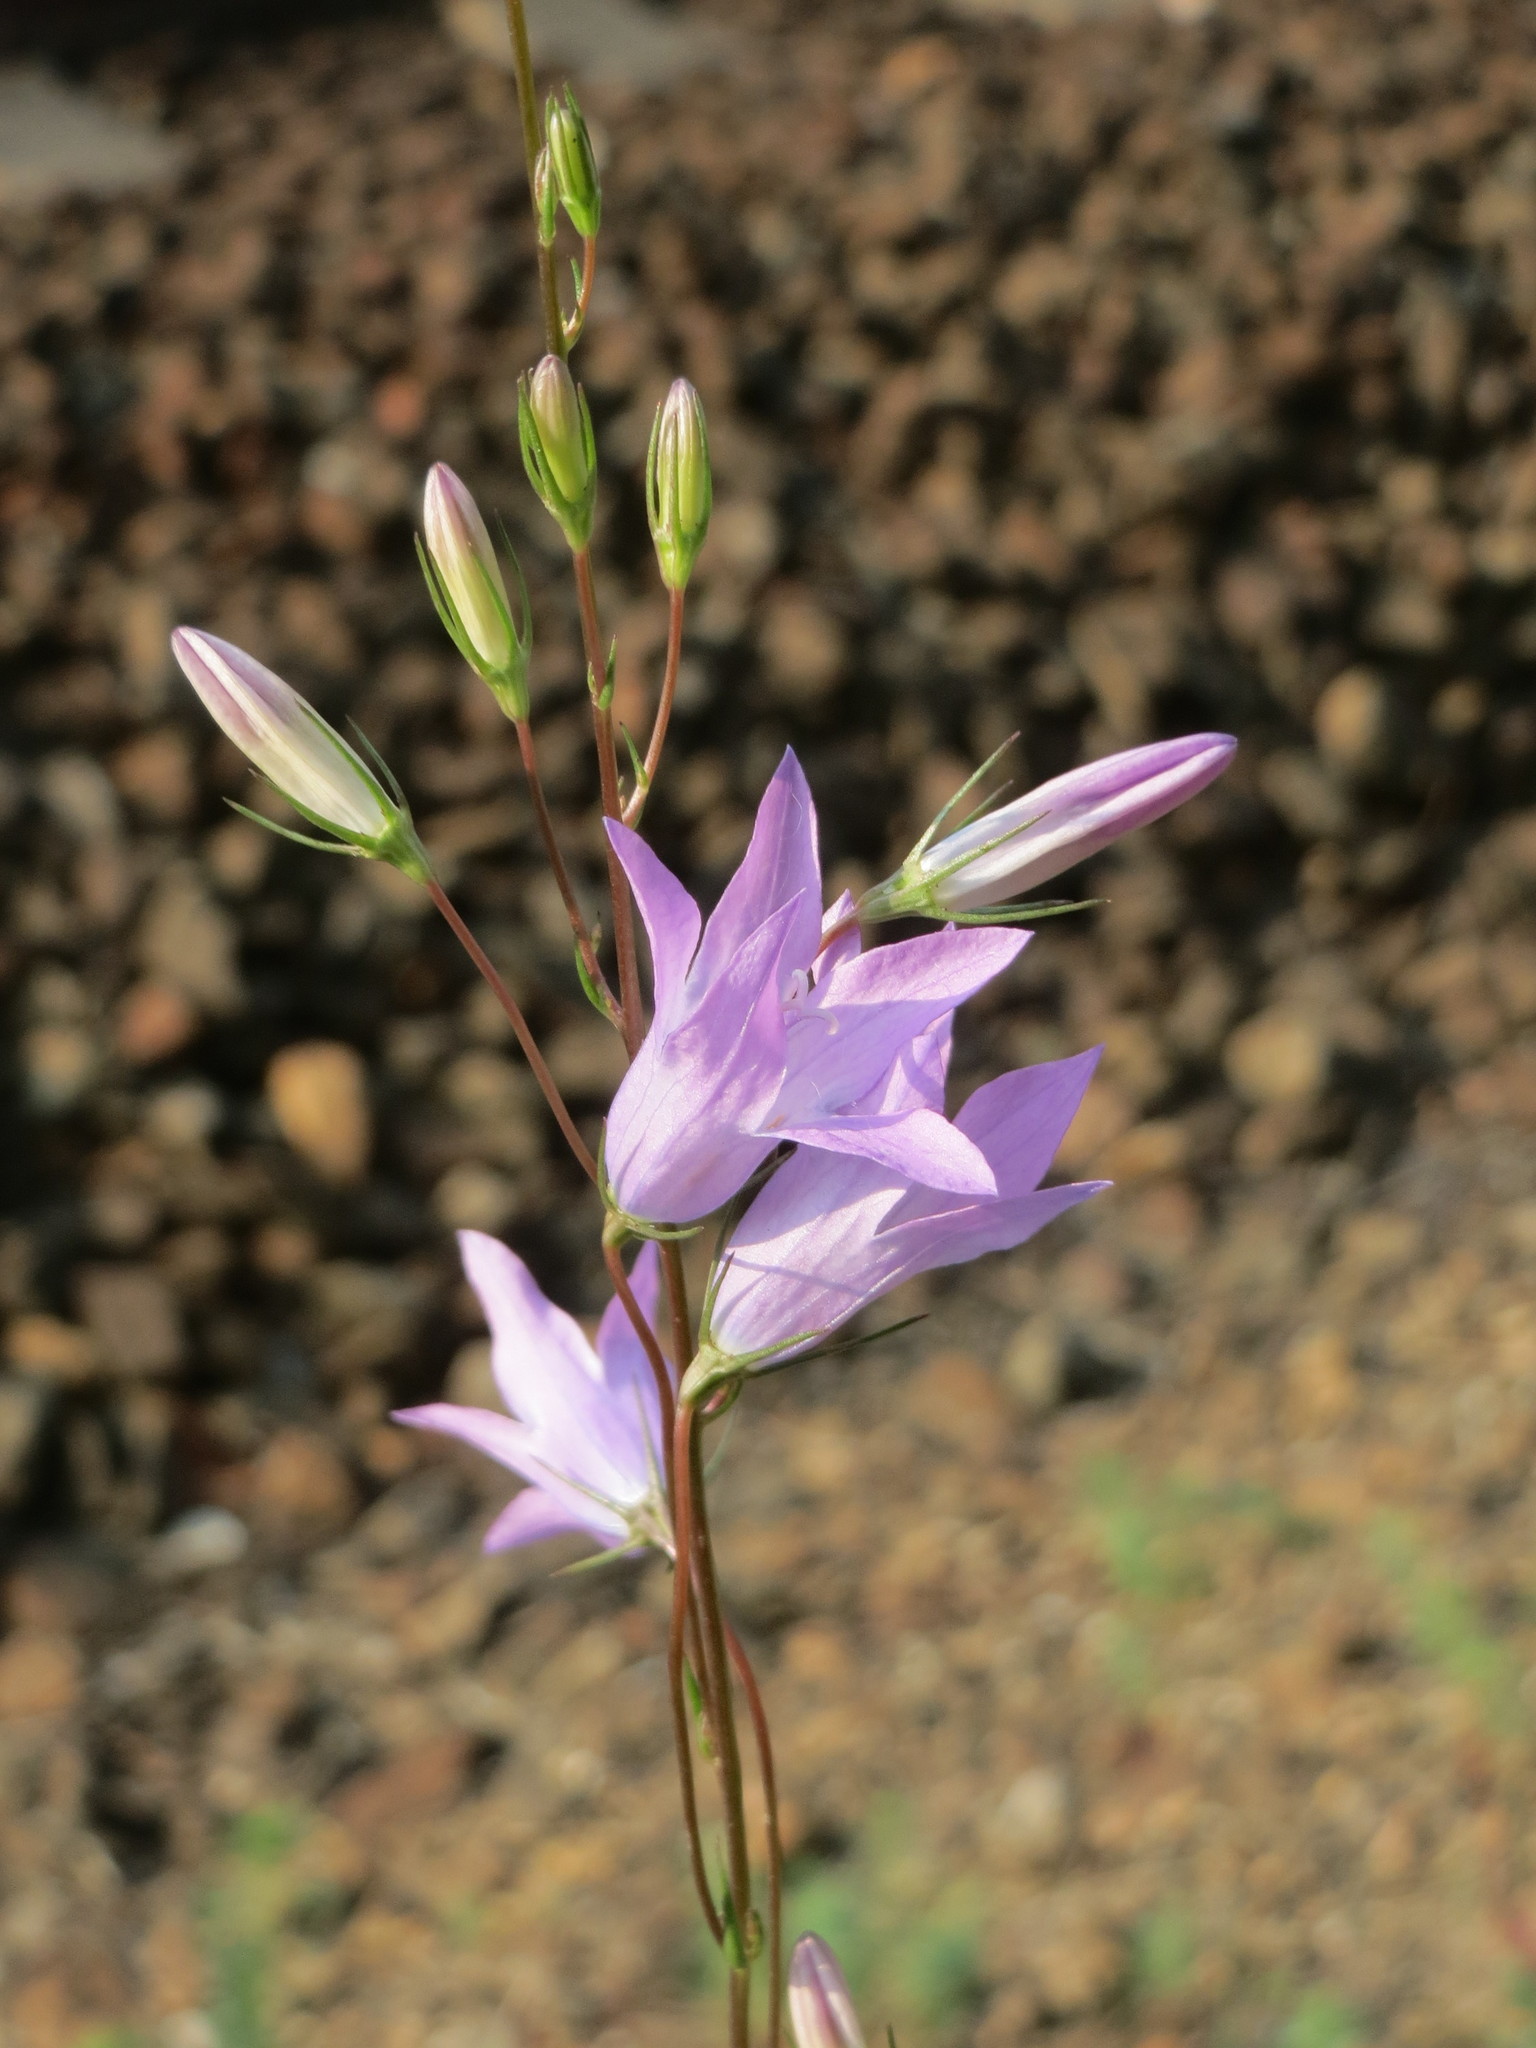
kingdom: Plantae
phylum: Tracheophyta
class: Magnoliopsida
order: Asterales
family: Campanulaceae
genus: Campanula
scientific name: Campanula rapunculus
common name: Rampion bellflower
